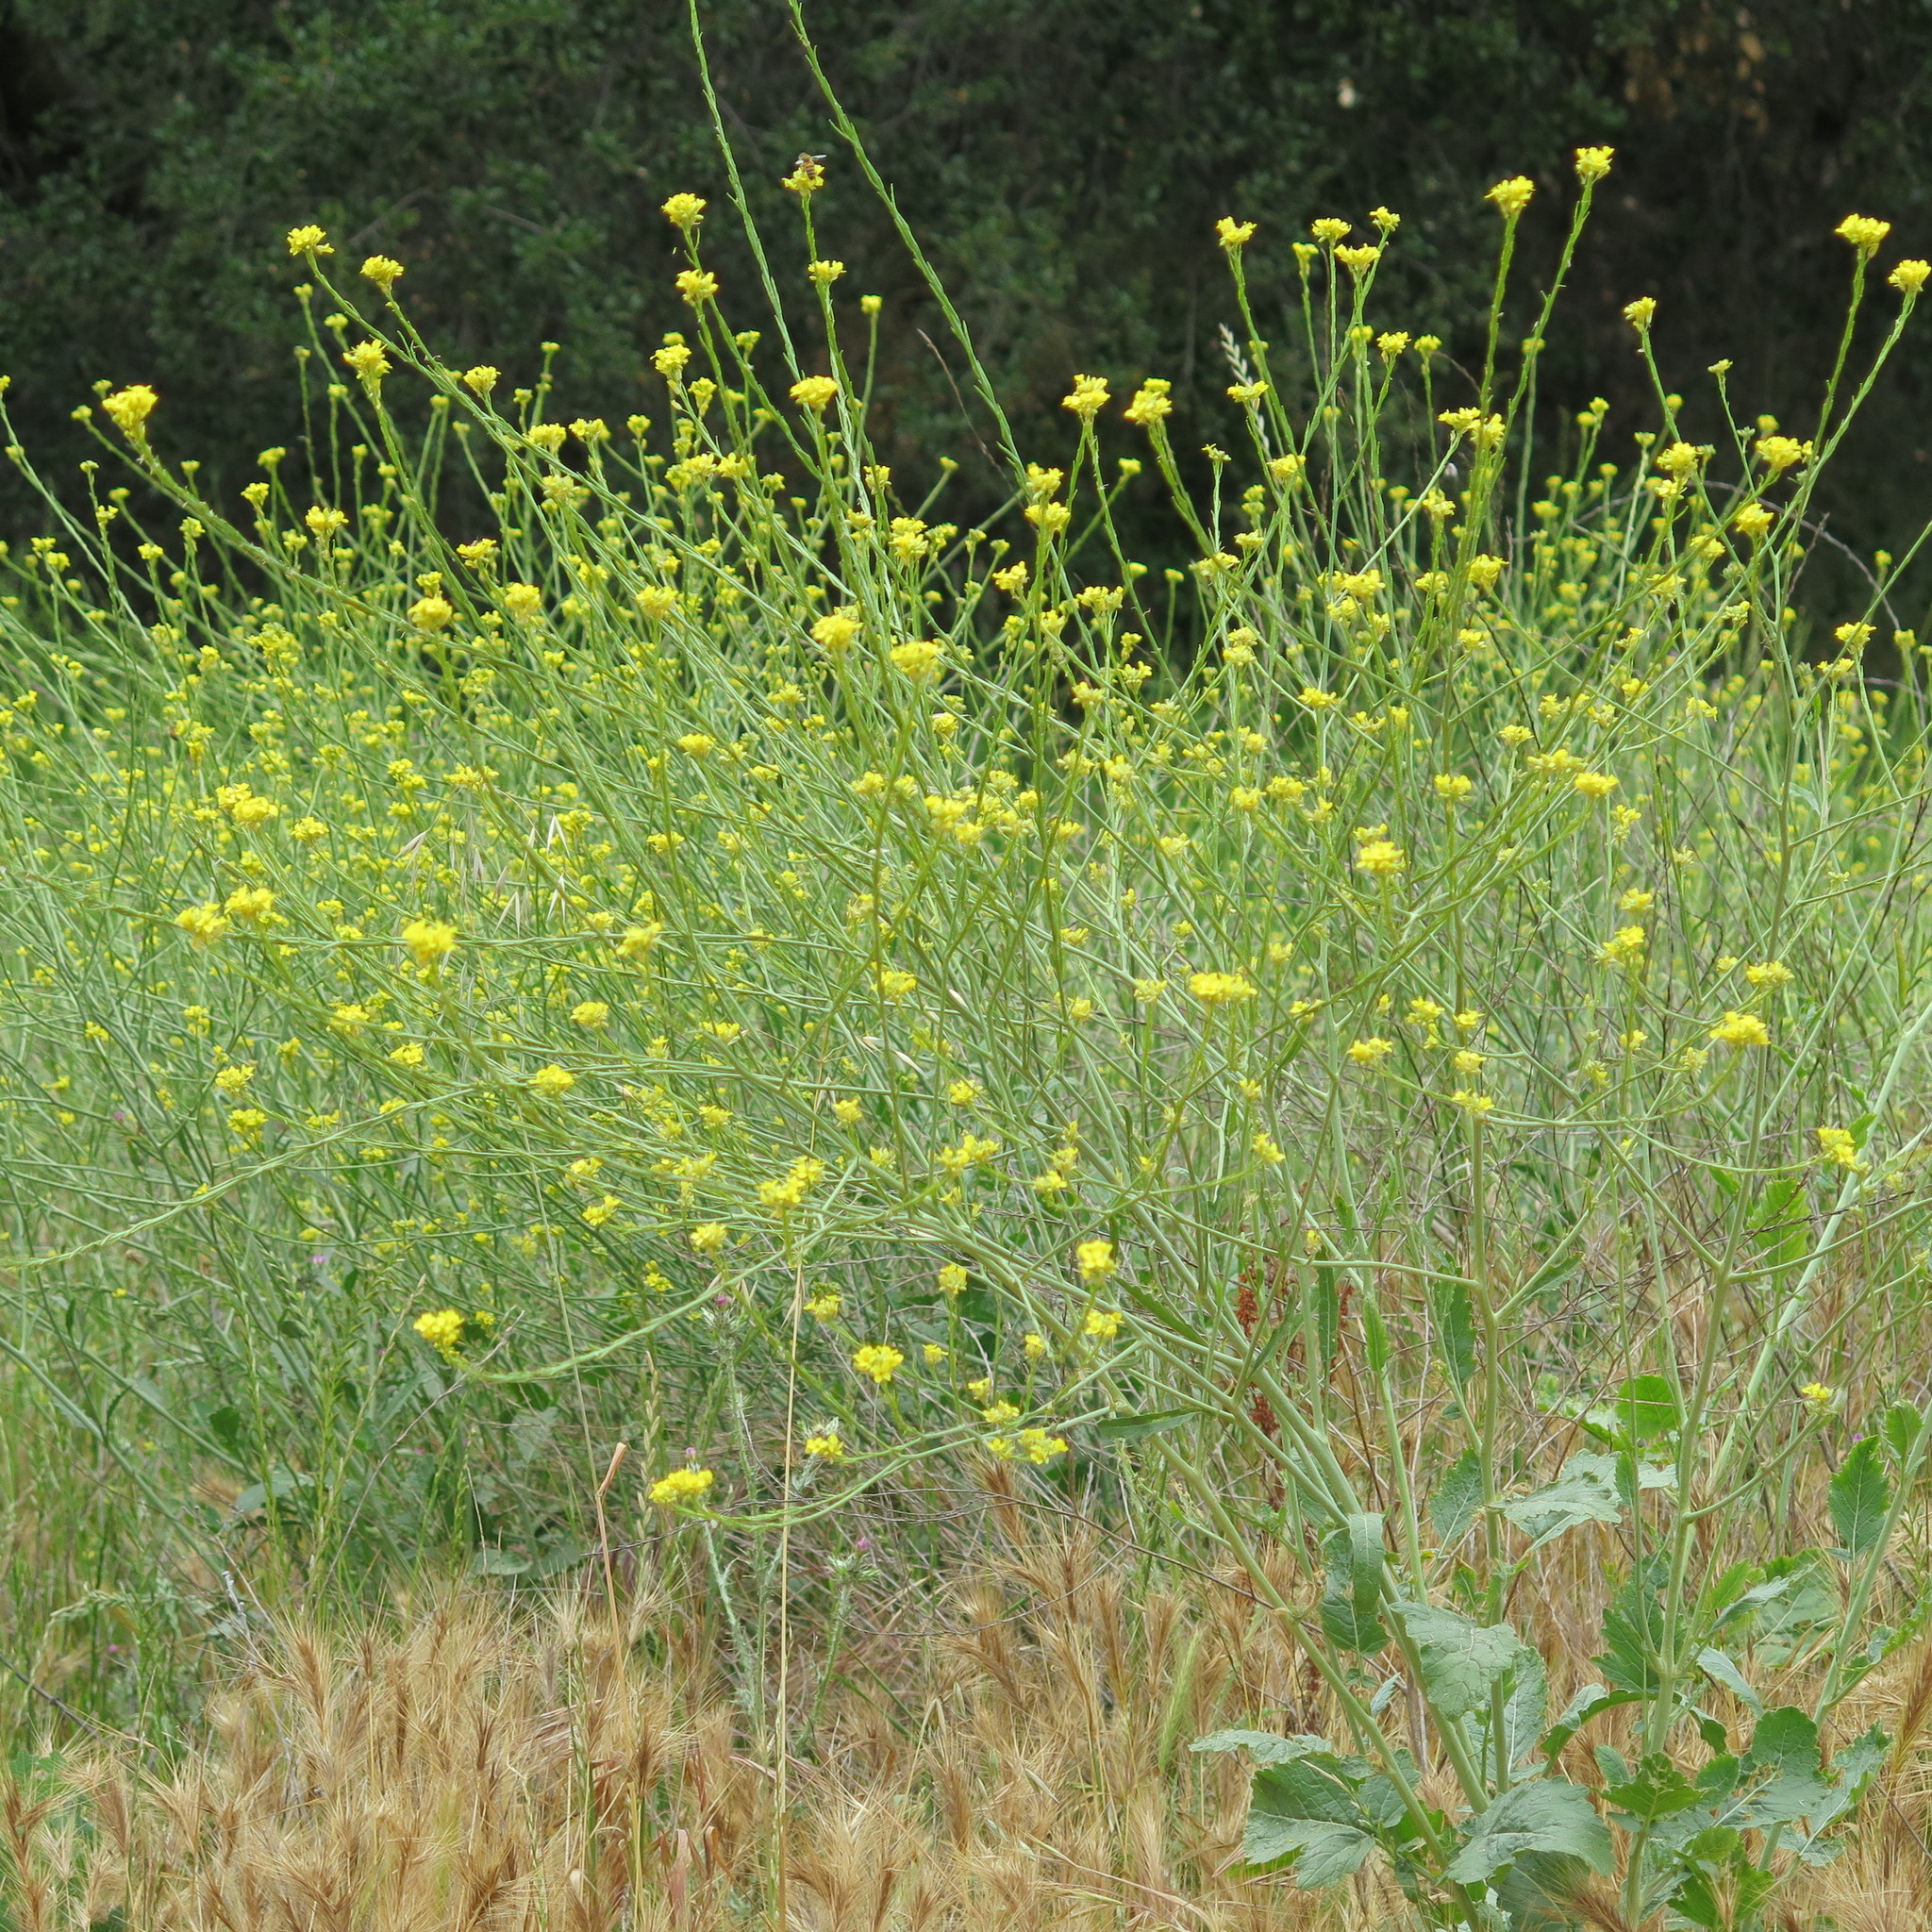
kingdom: Plantae
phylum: Tracheophyta
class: Magnoliopsida
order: Brassicales
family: Brassicaceae
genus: Hirschfeldia
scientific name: Hirschfeldia incana
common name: Hoary mustard
